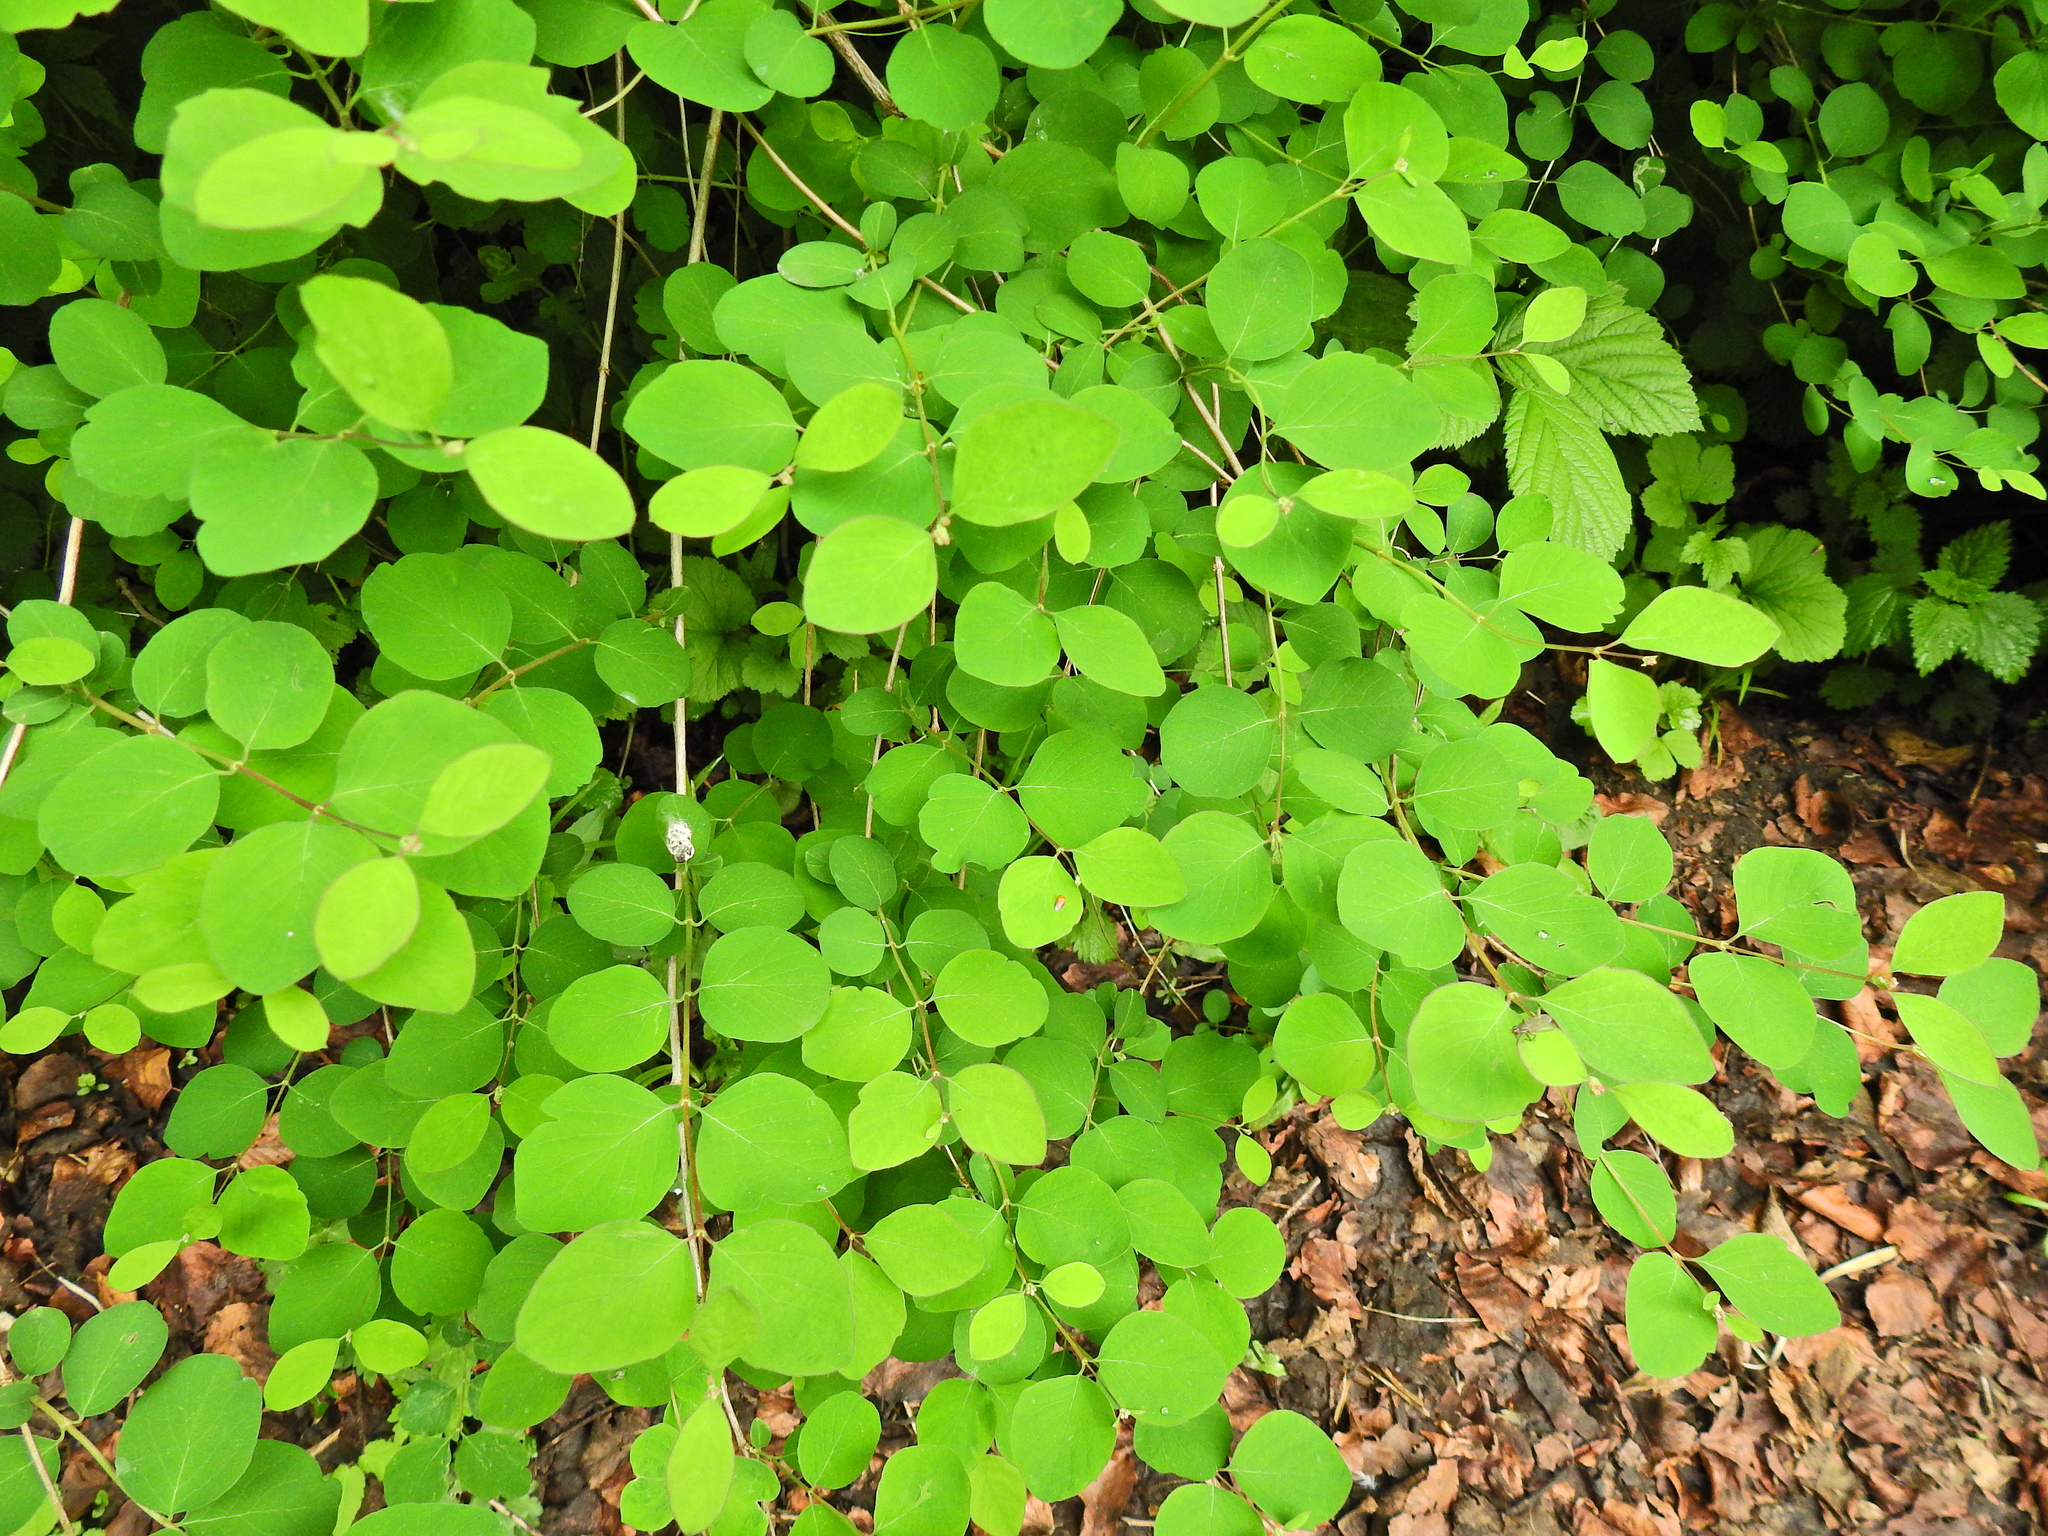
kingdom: Plantae
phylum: Tracheophyta
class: Magnoliopsida
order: Dipsacales
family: Caprifoliaceae
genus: Symphoricarpos
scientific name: Symphoricarpos albus
